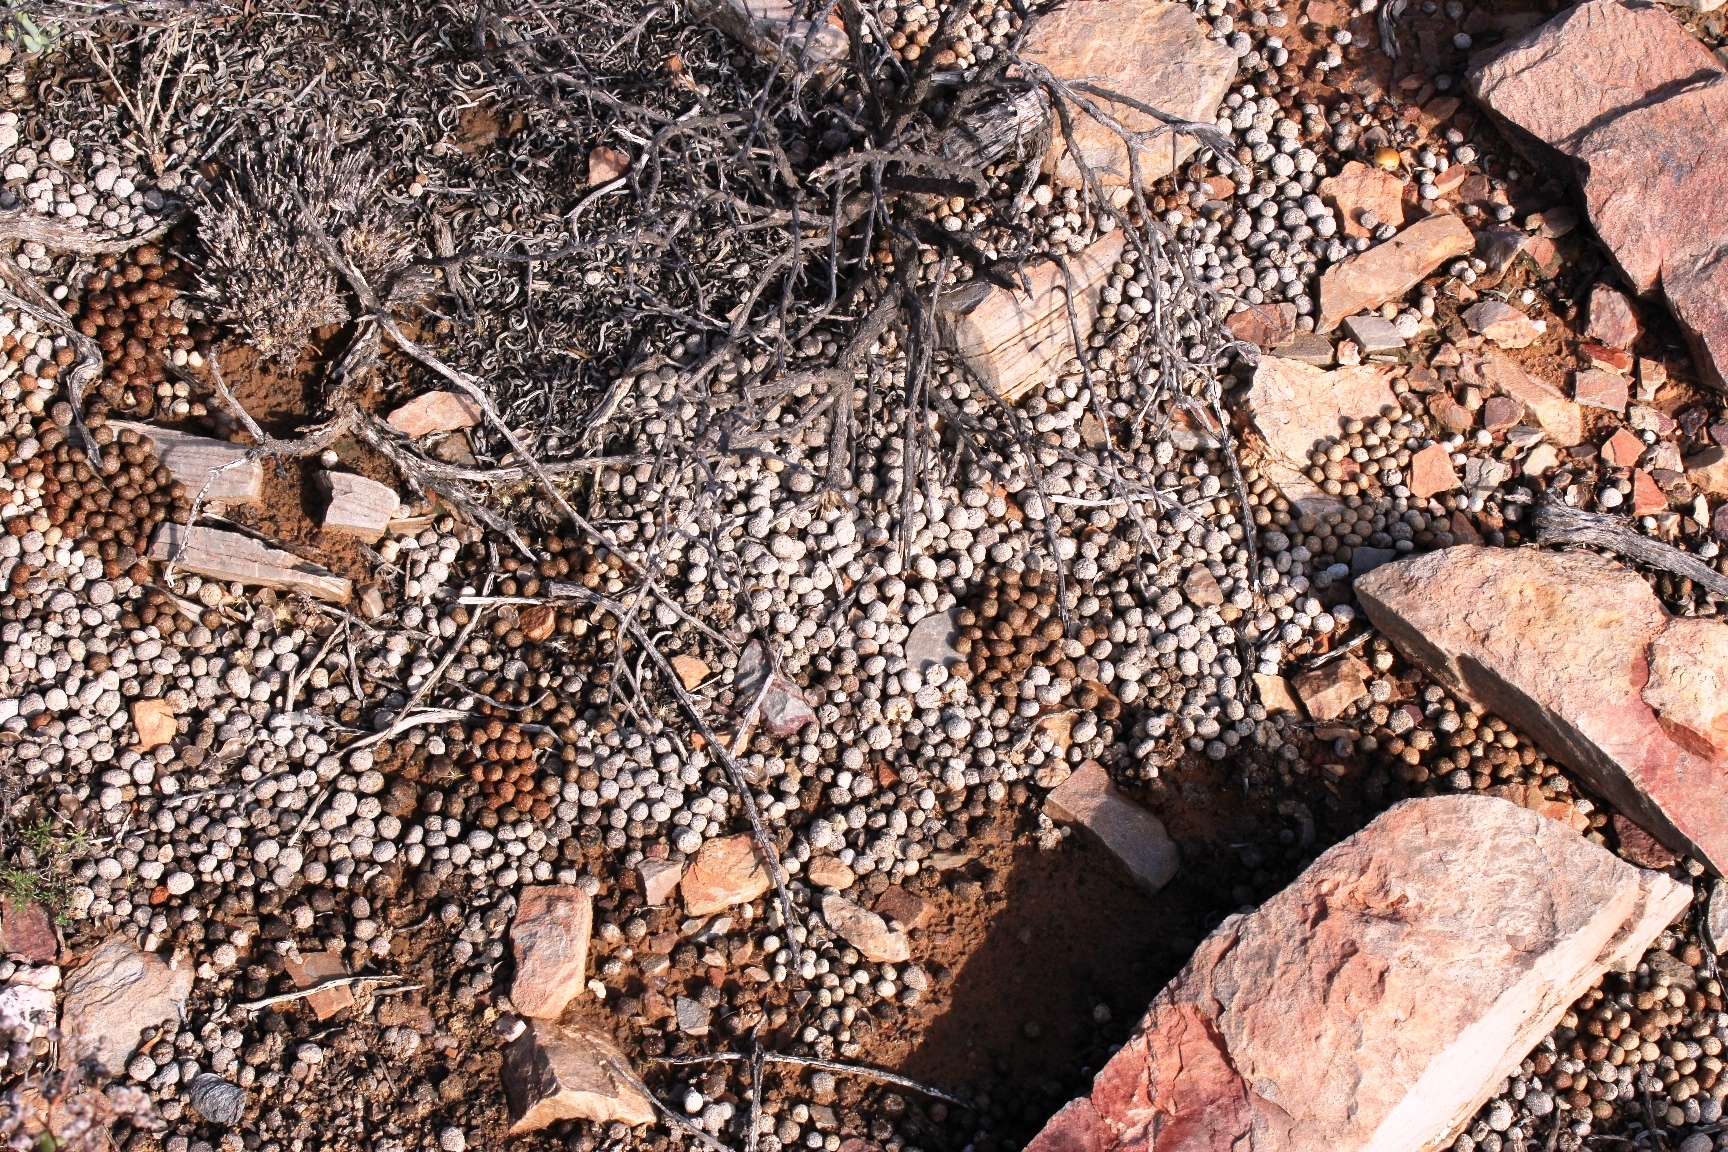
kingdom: Animalia
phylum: Chordata
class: Mammalia
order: Lagomorpha
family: Leporidae
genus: Pronolagus
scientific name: Pronolagus saundersiae
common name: Hewitt's red rock hare
